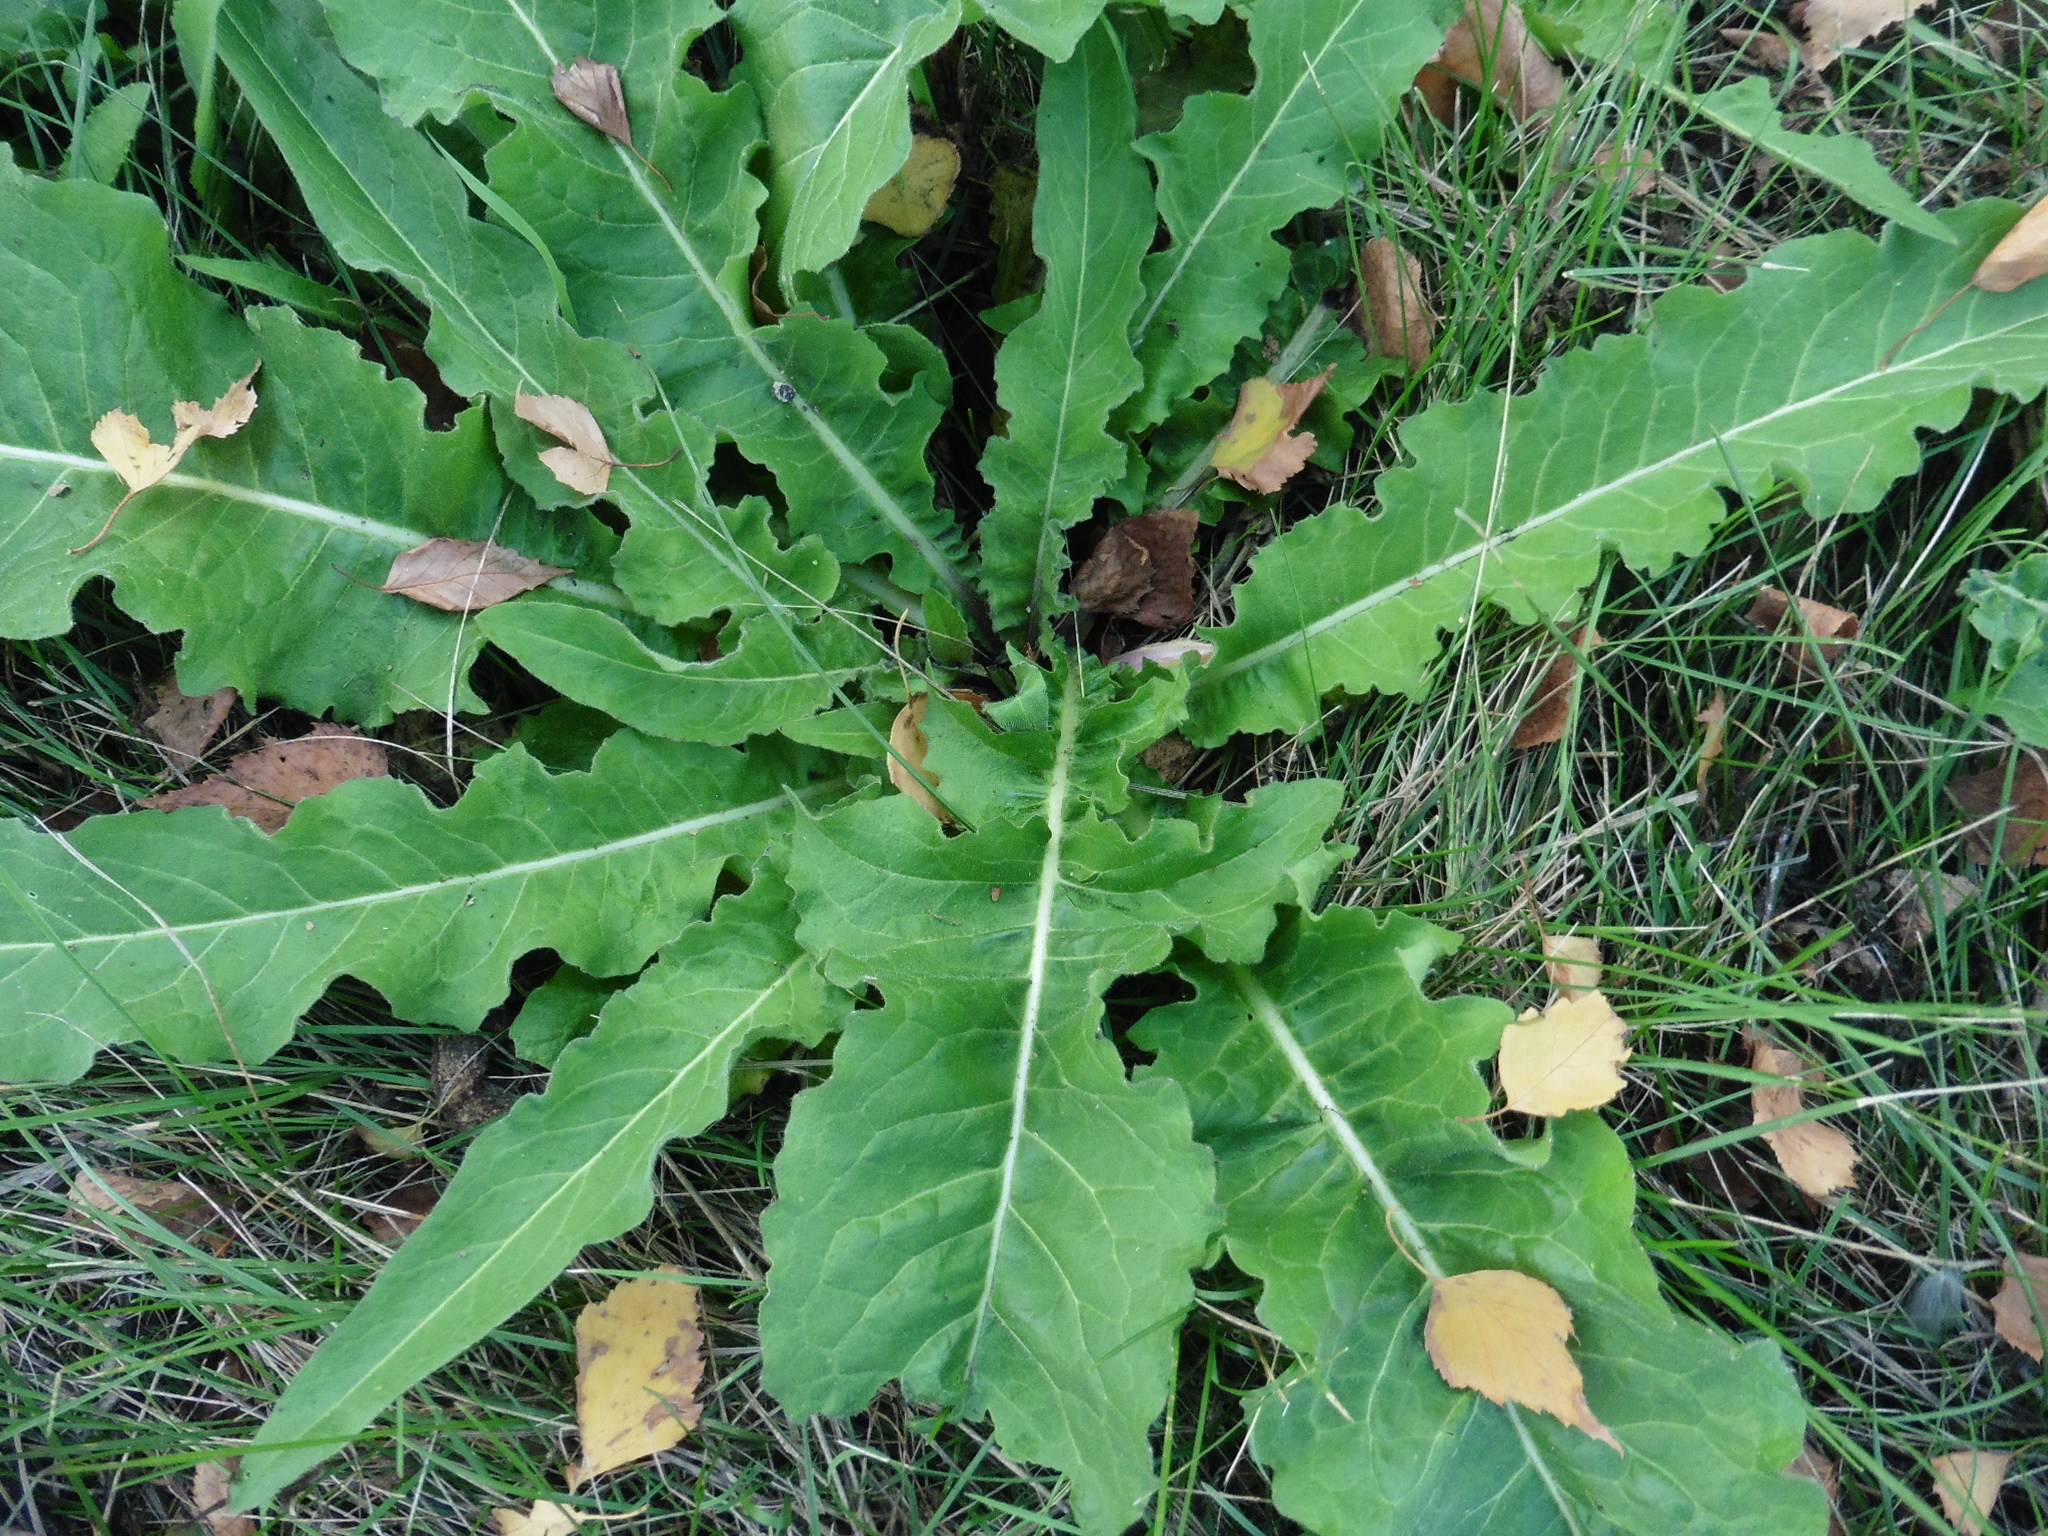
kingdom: Plantae
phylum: Tracheophyta
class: Magnoliopsida
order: Brassicales
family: Brassicaceae
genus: Bunias
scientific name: Bunias orientalis
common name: Warty-cabbage
